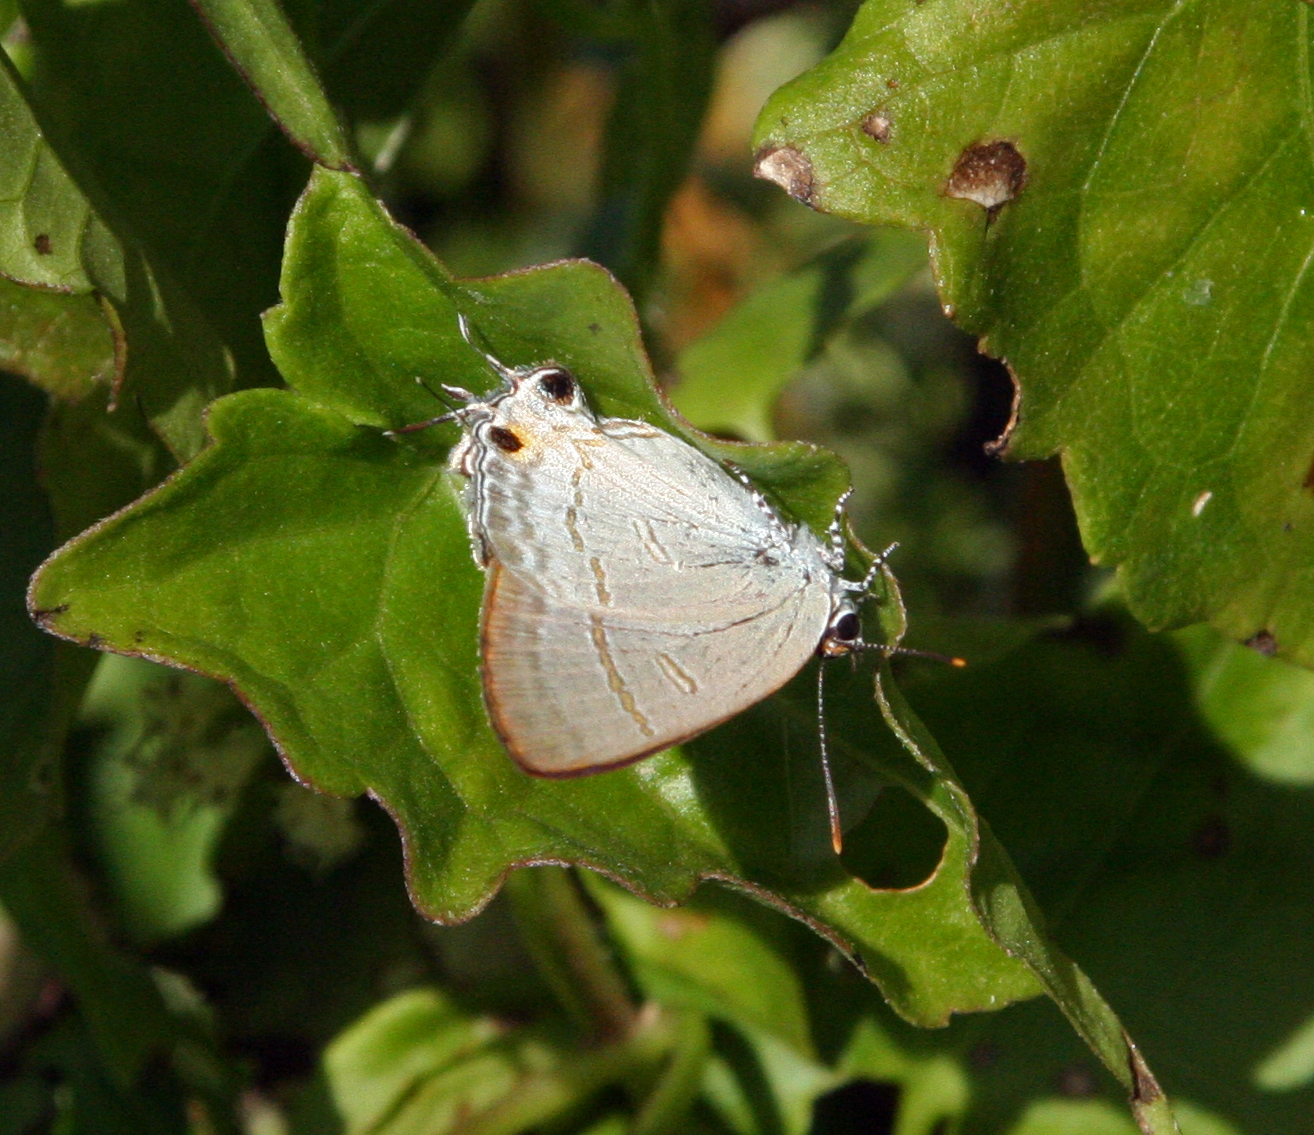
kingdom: Animalia
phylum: Arthropoda
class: Insecta
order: Lepidoptera
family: Lycaenidae
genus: Hypolycaena
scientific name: Hypolycaena erylus
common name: Common tit
